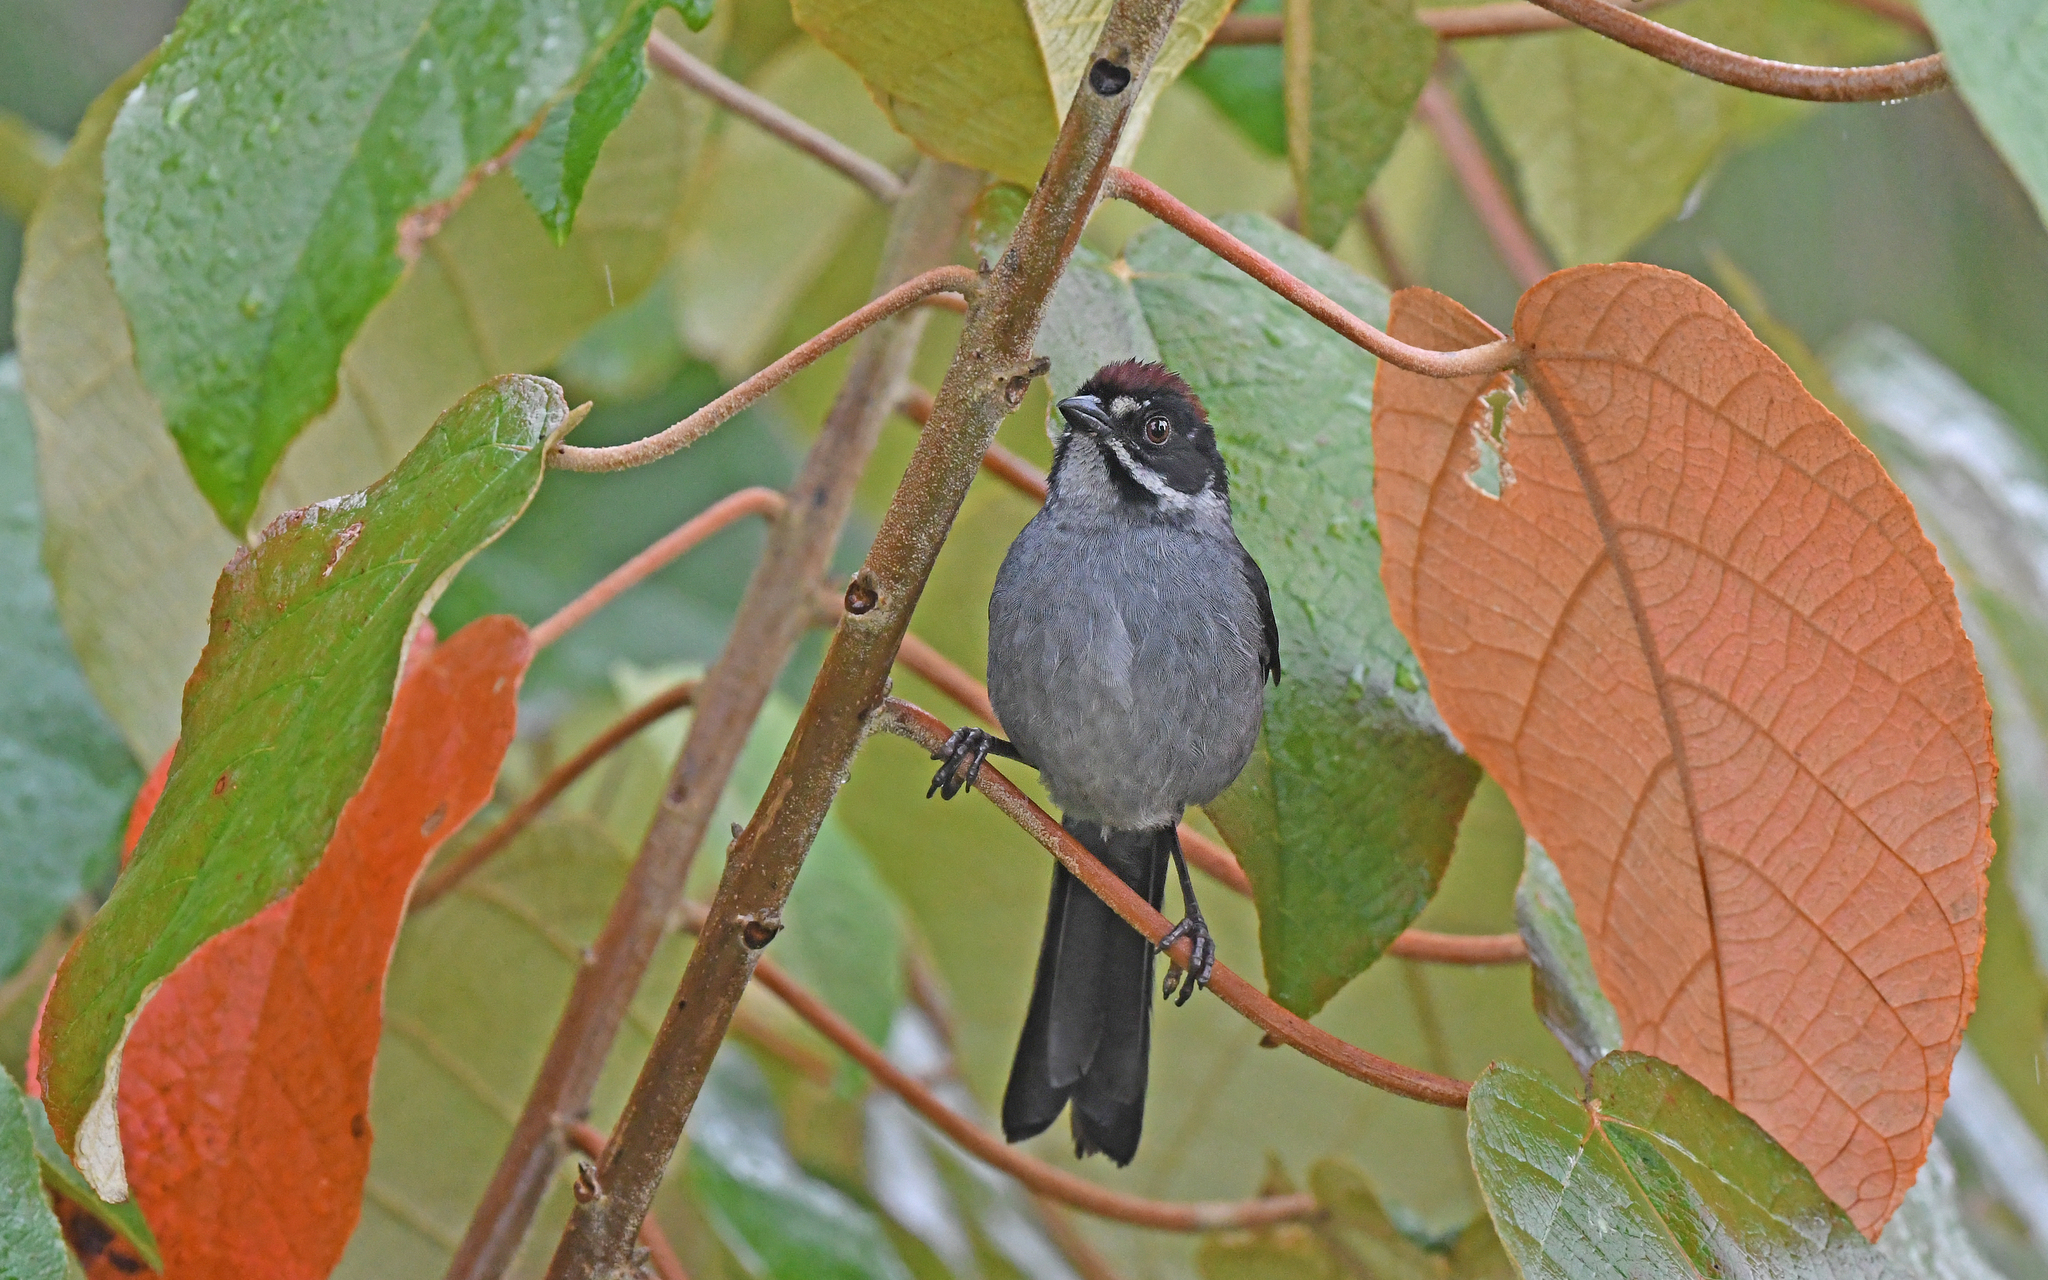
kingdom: Animalia
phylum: Chordata
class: Aves
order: Passeriformes
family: Passerellidae
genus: Atlapetes
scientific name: Atlapetes schistaceus
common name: Slaty brushfinch
